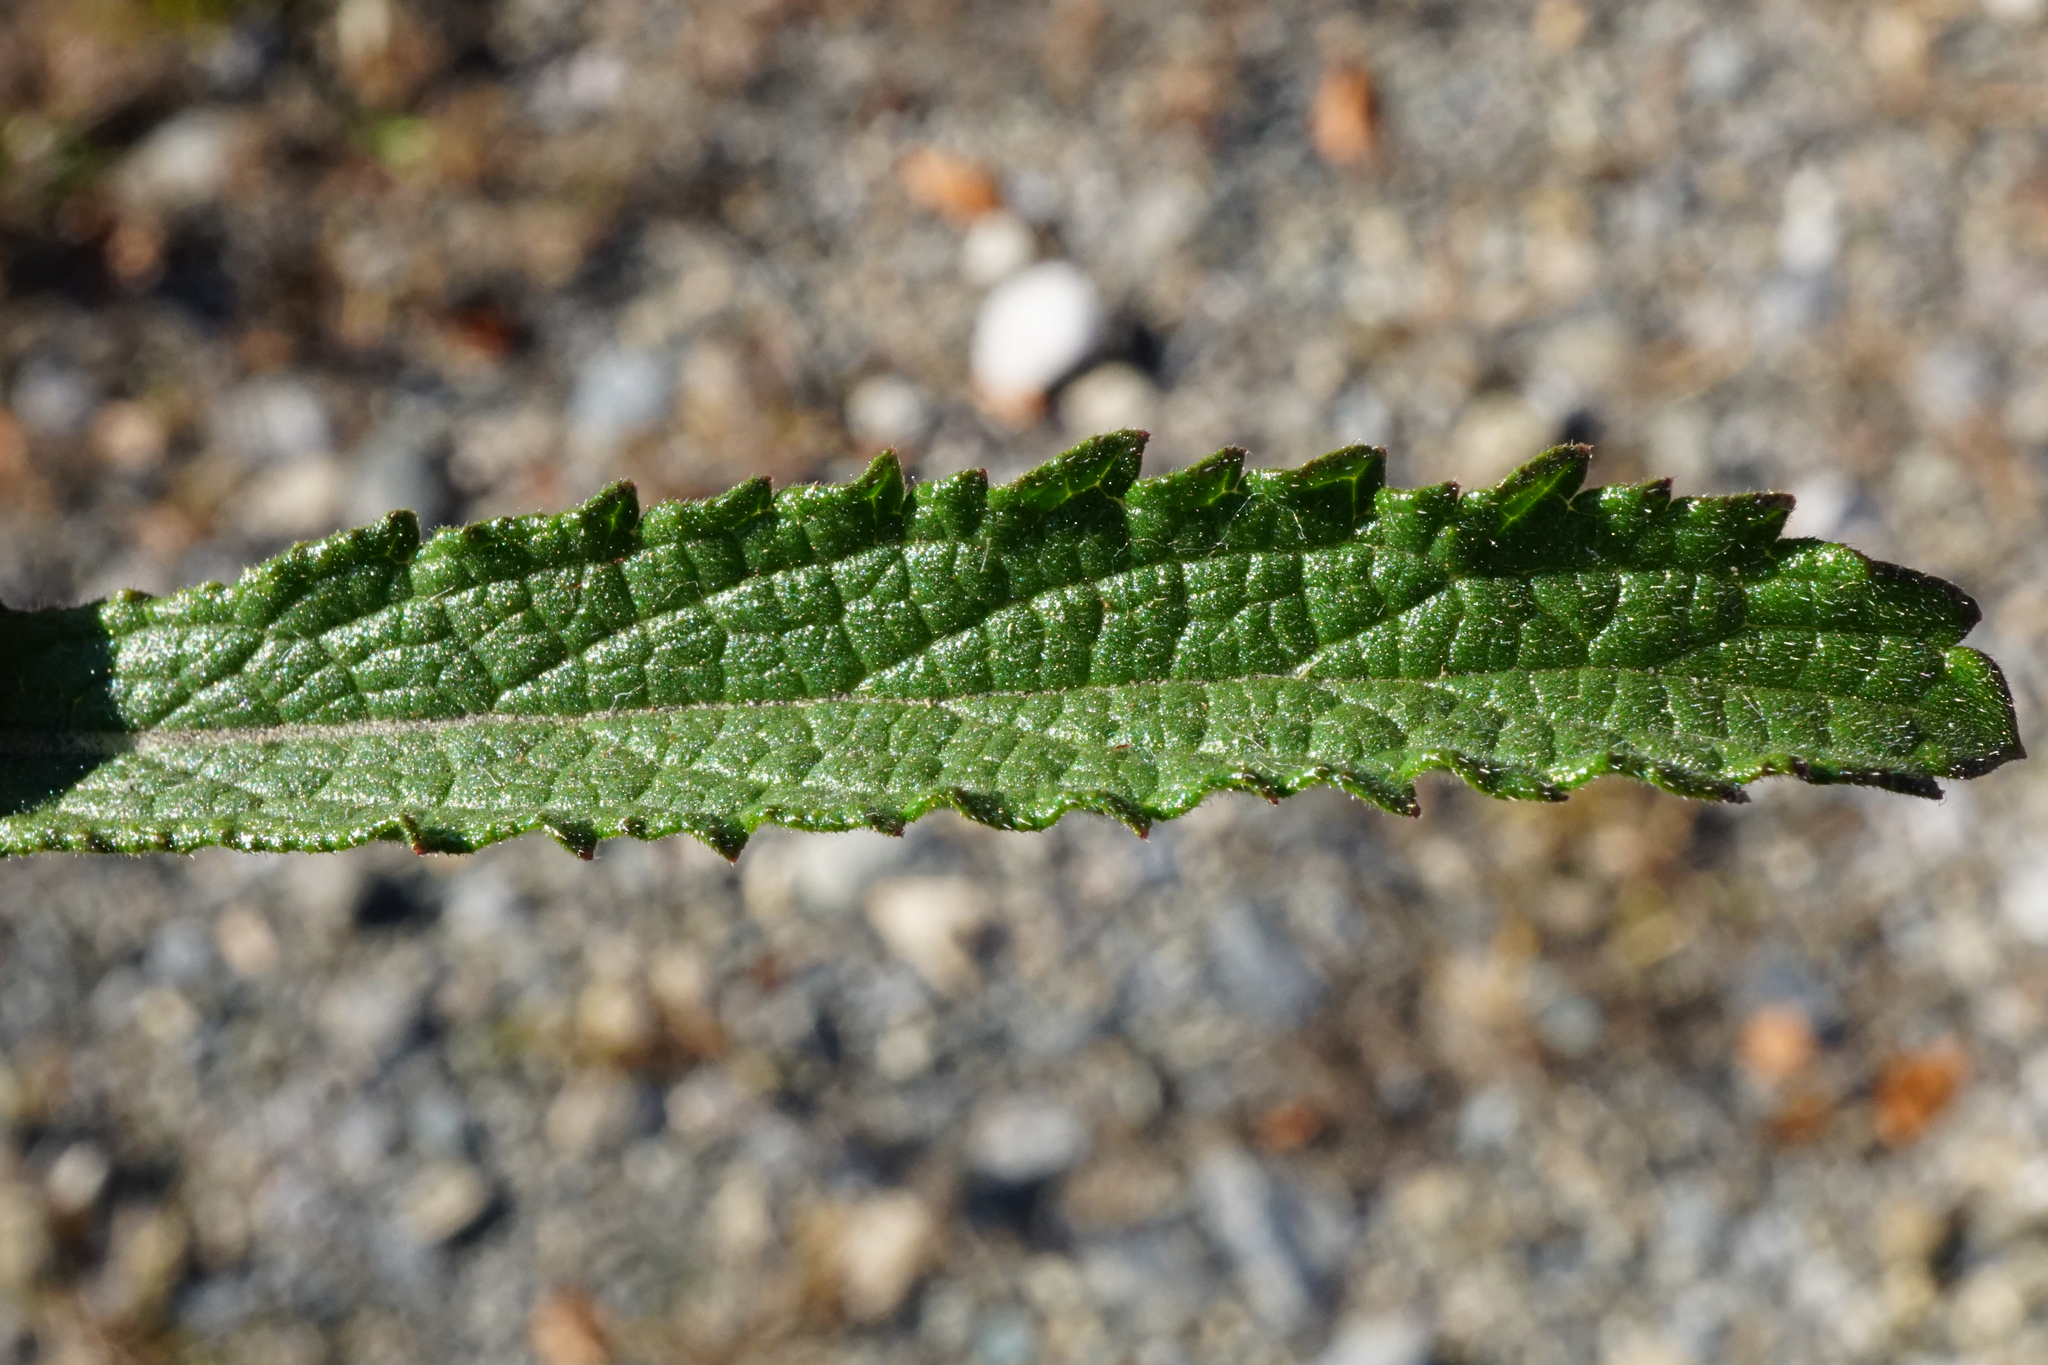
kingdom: Plantae
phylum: Tracheophyta
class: Magnoliopsida
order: Lamiales
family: Verbenaceae
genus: Verbena
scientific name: Verbena bonariensis
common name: Purpletop vervain
